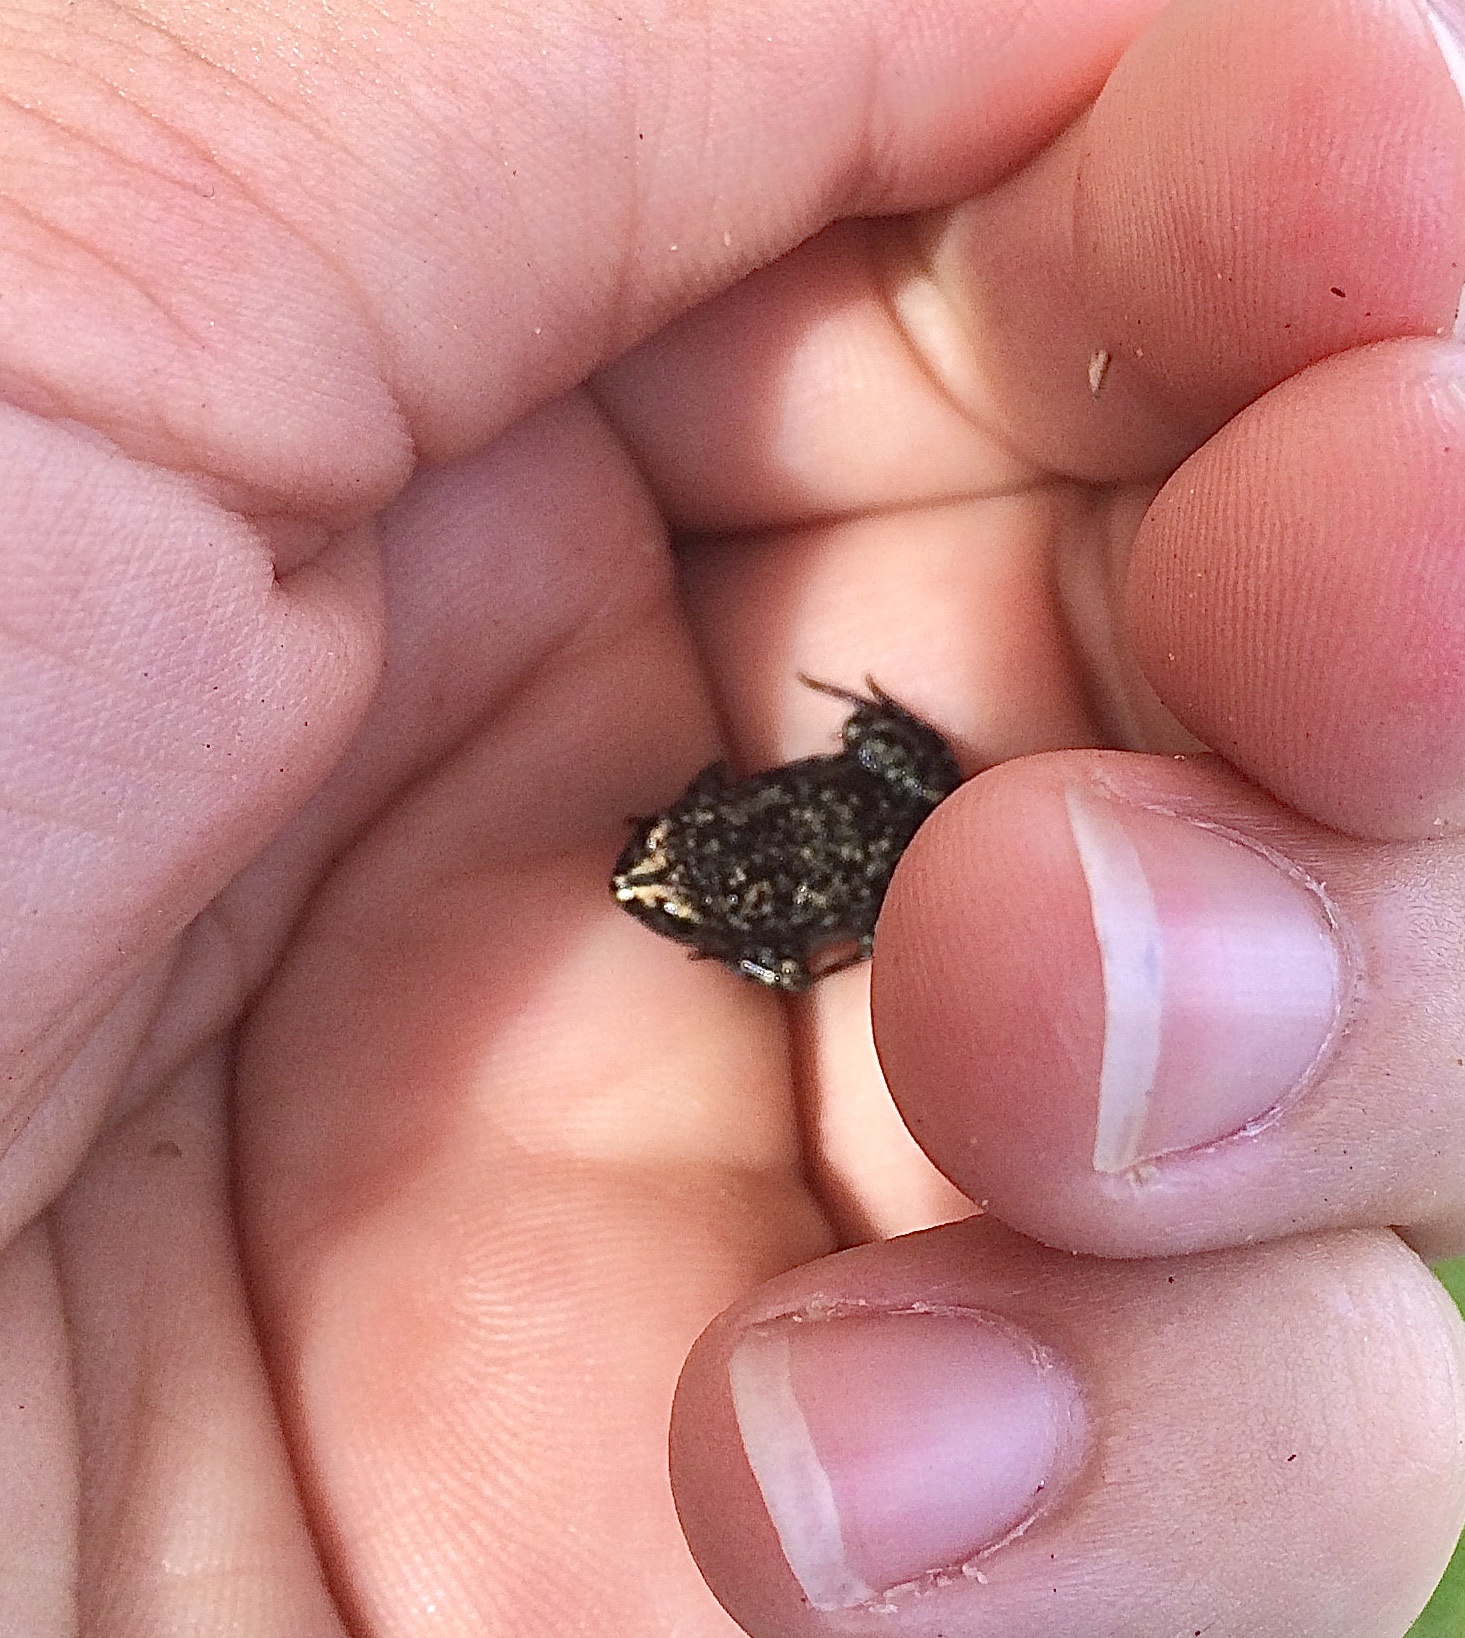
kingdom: Animalia
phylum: Chordata
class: Amphibia
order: Anura
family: Microhylidae
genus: Gastrophryne
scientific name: Gastrophryne carolinensis
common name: Eastern narrowmouth toad
